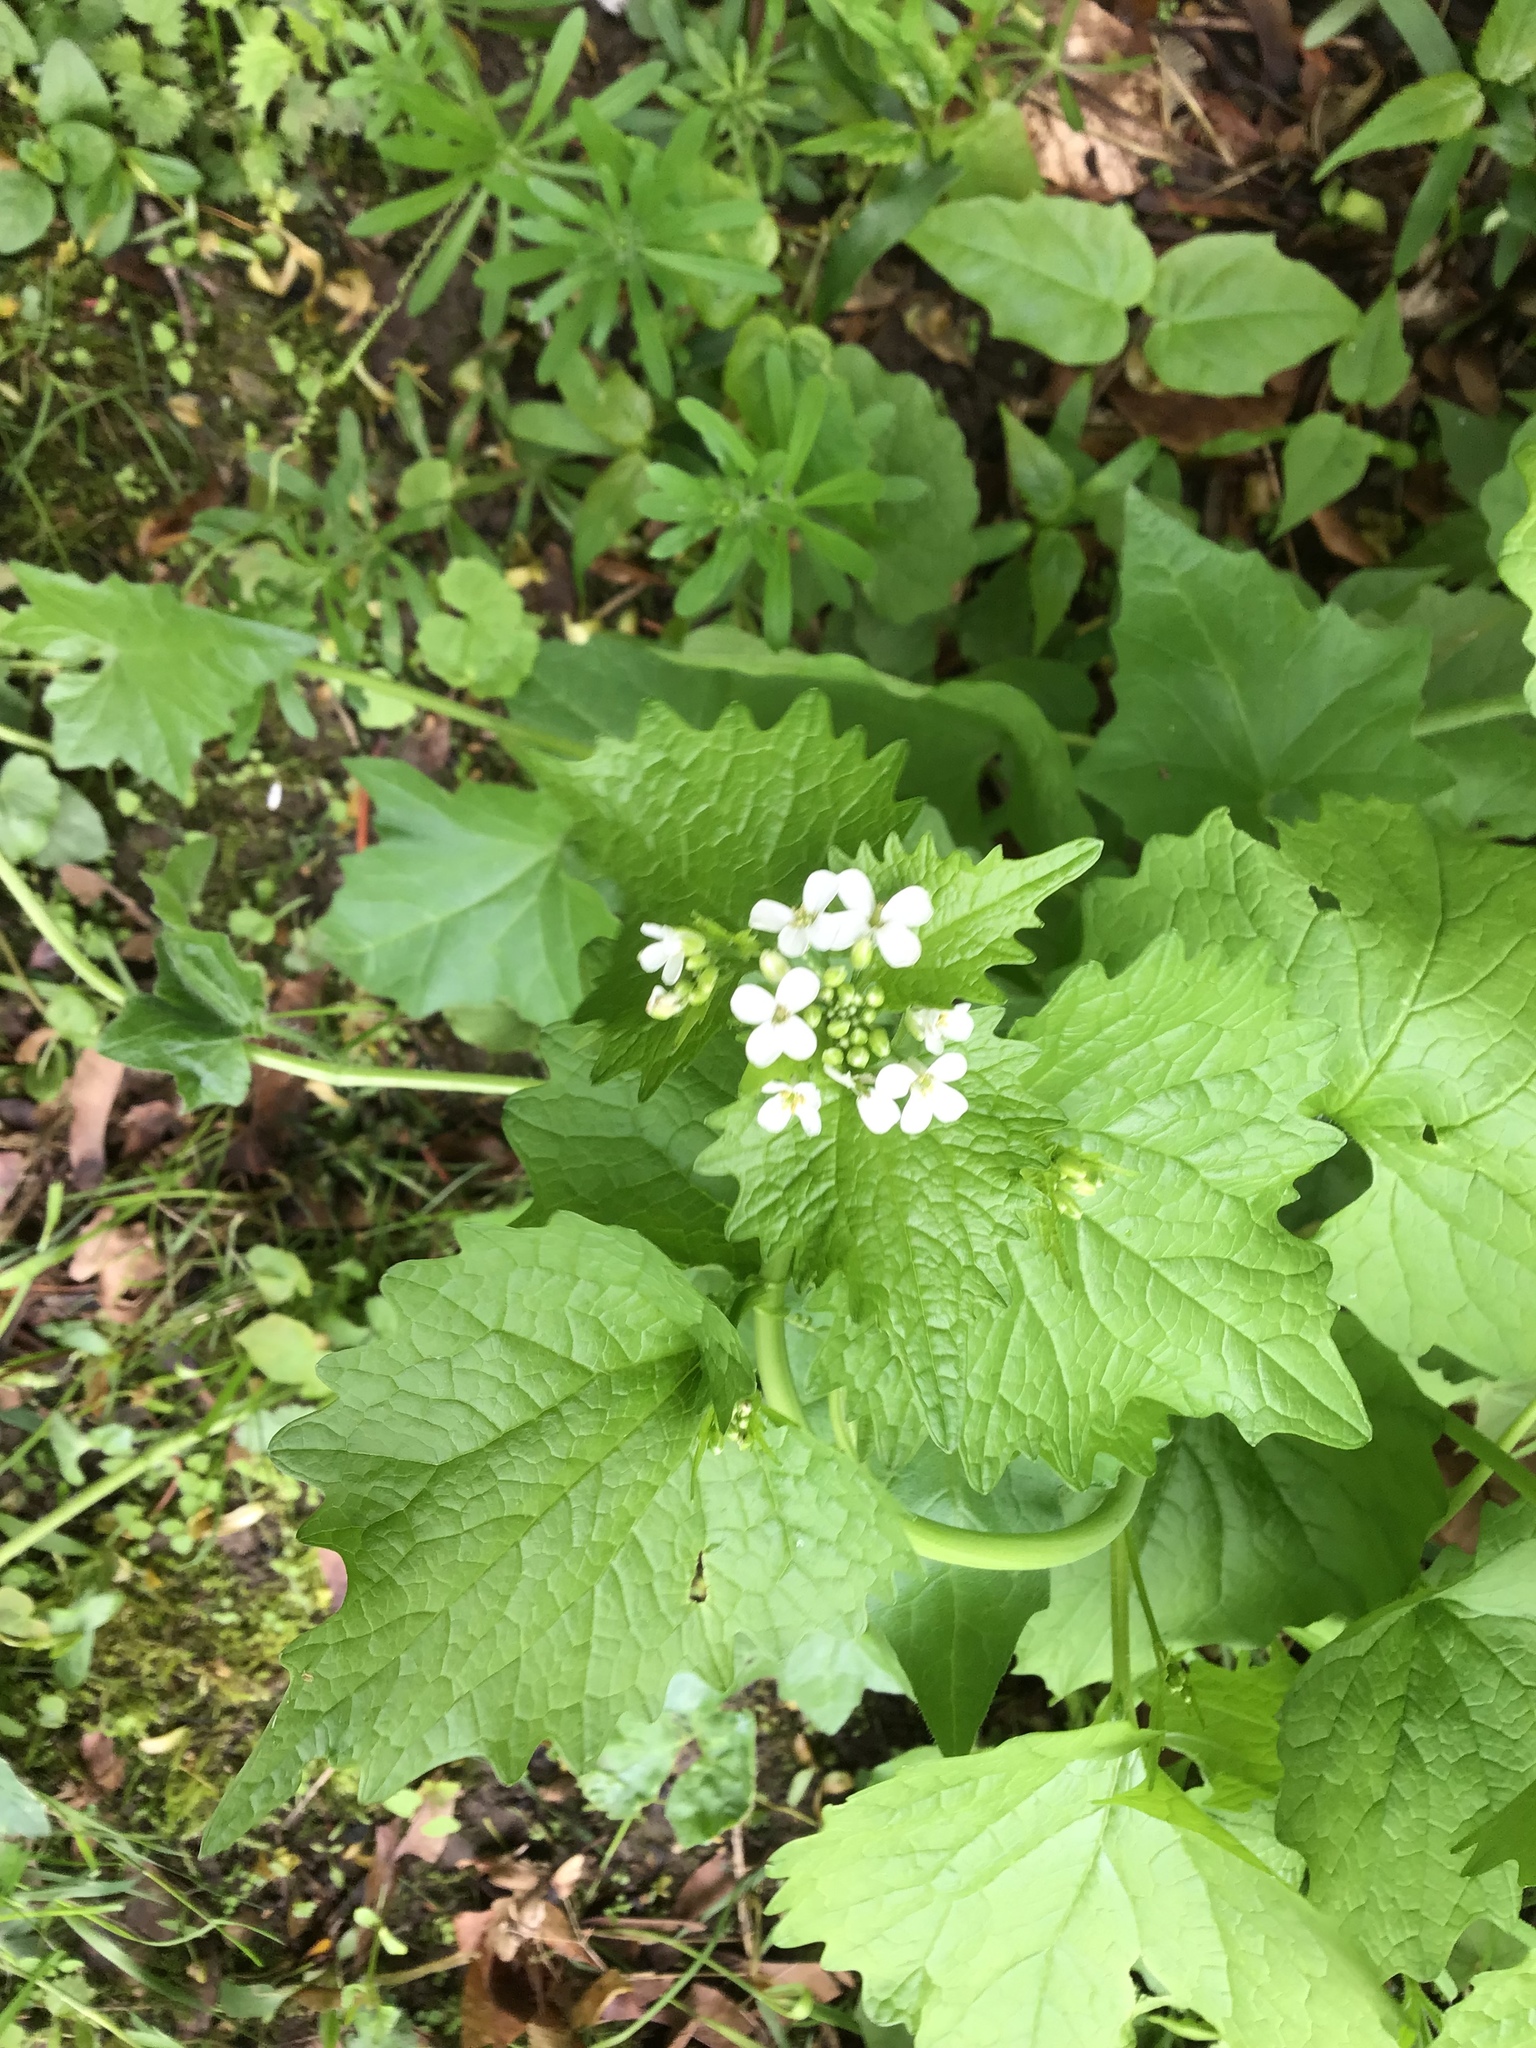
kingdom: Plantae
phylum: Tracheophyta
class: Magnoliopsida
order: Brassicales
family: Brassicaceae
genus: Alliaria
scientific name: Alliaria petiolata
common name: Garlic mustard
